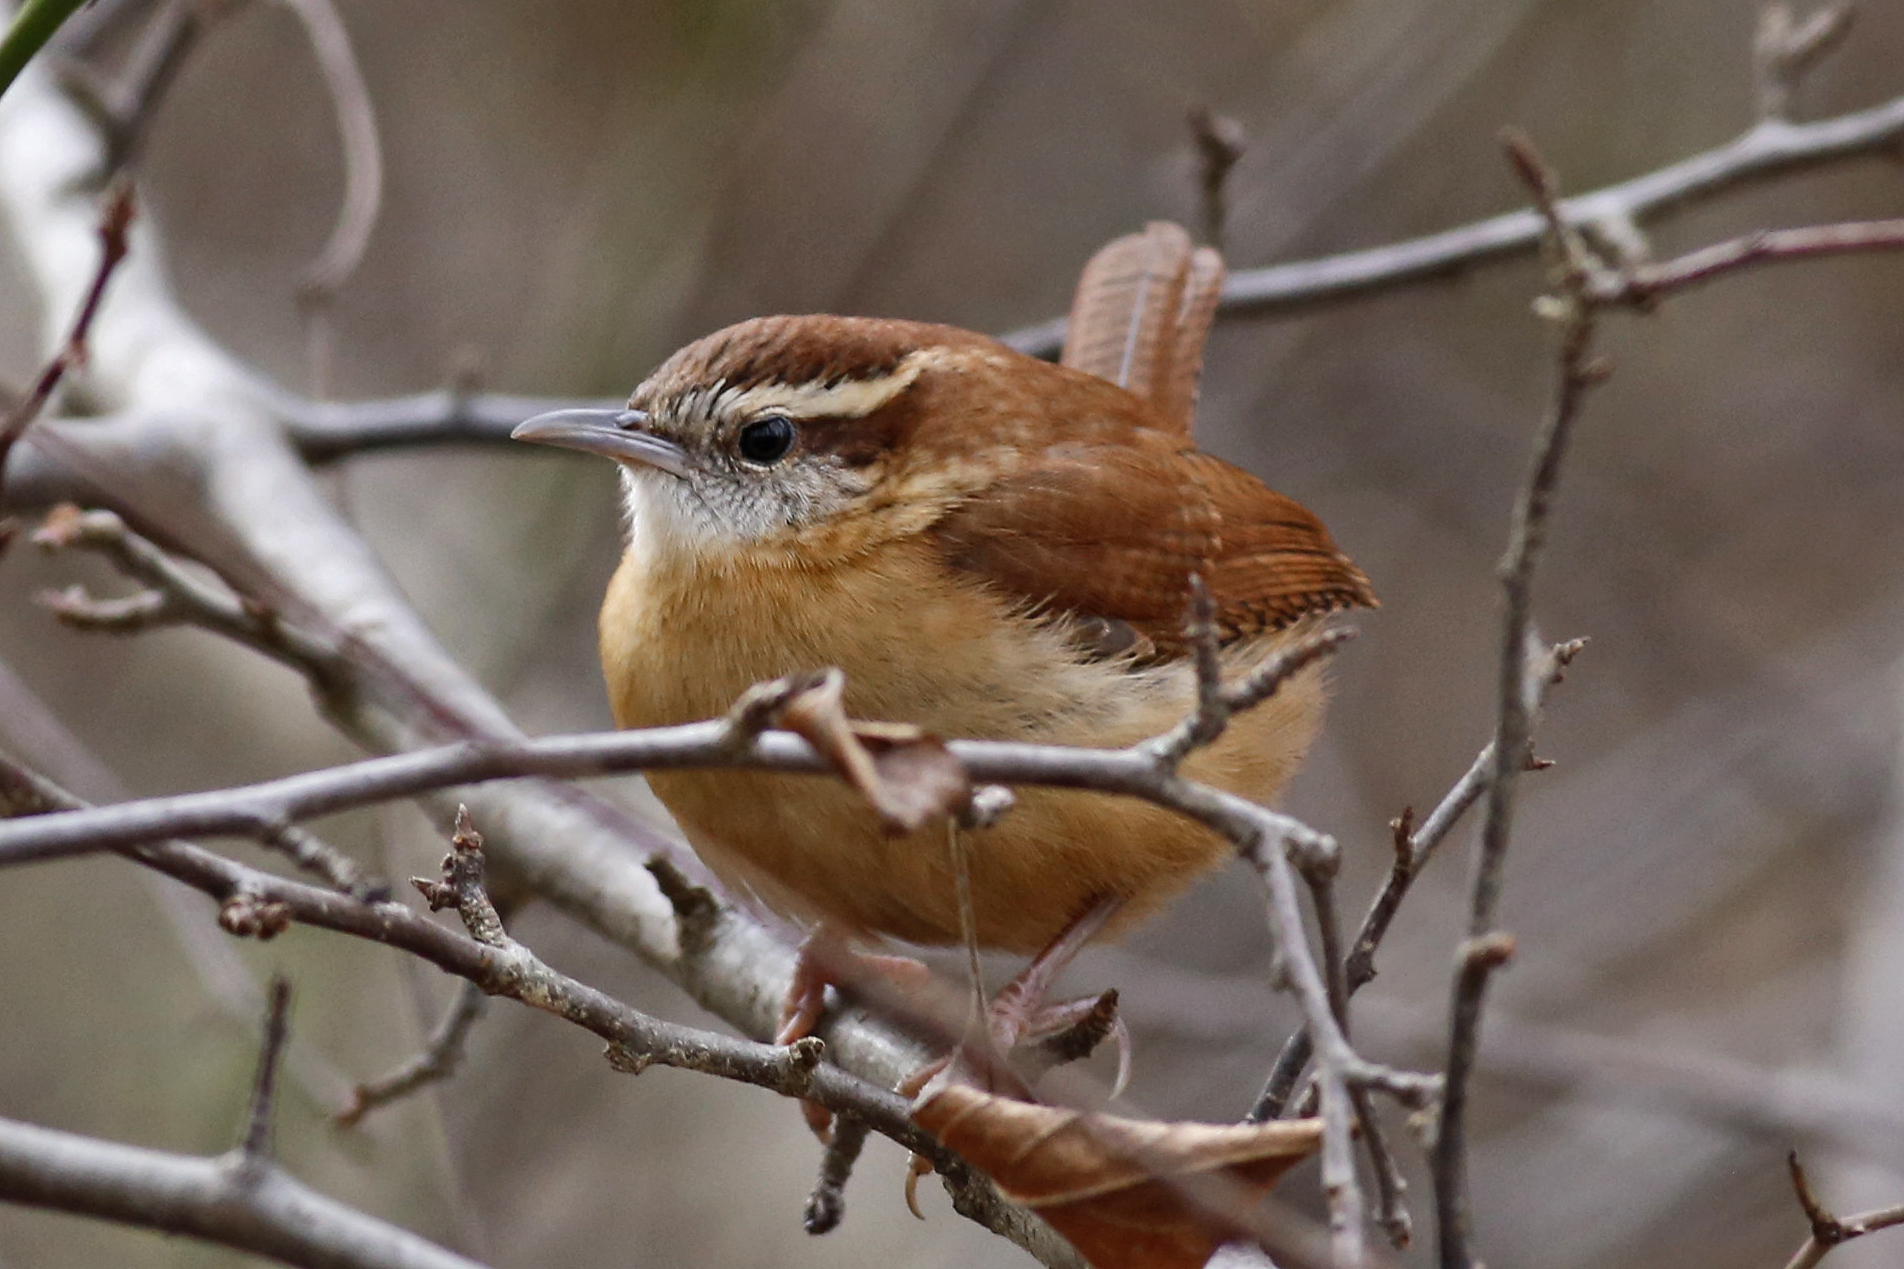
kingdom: Animalia
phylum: Chordata
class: Aves
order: Passeriformes
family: Troglodytidae
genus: Thryothorus
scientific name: Thryothorus ludovicianus
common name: Carolina wren
